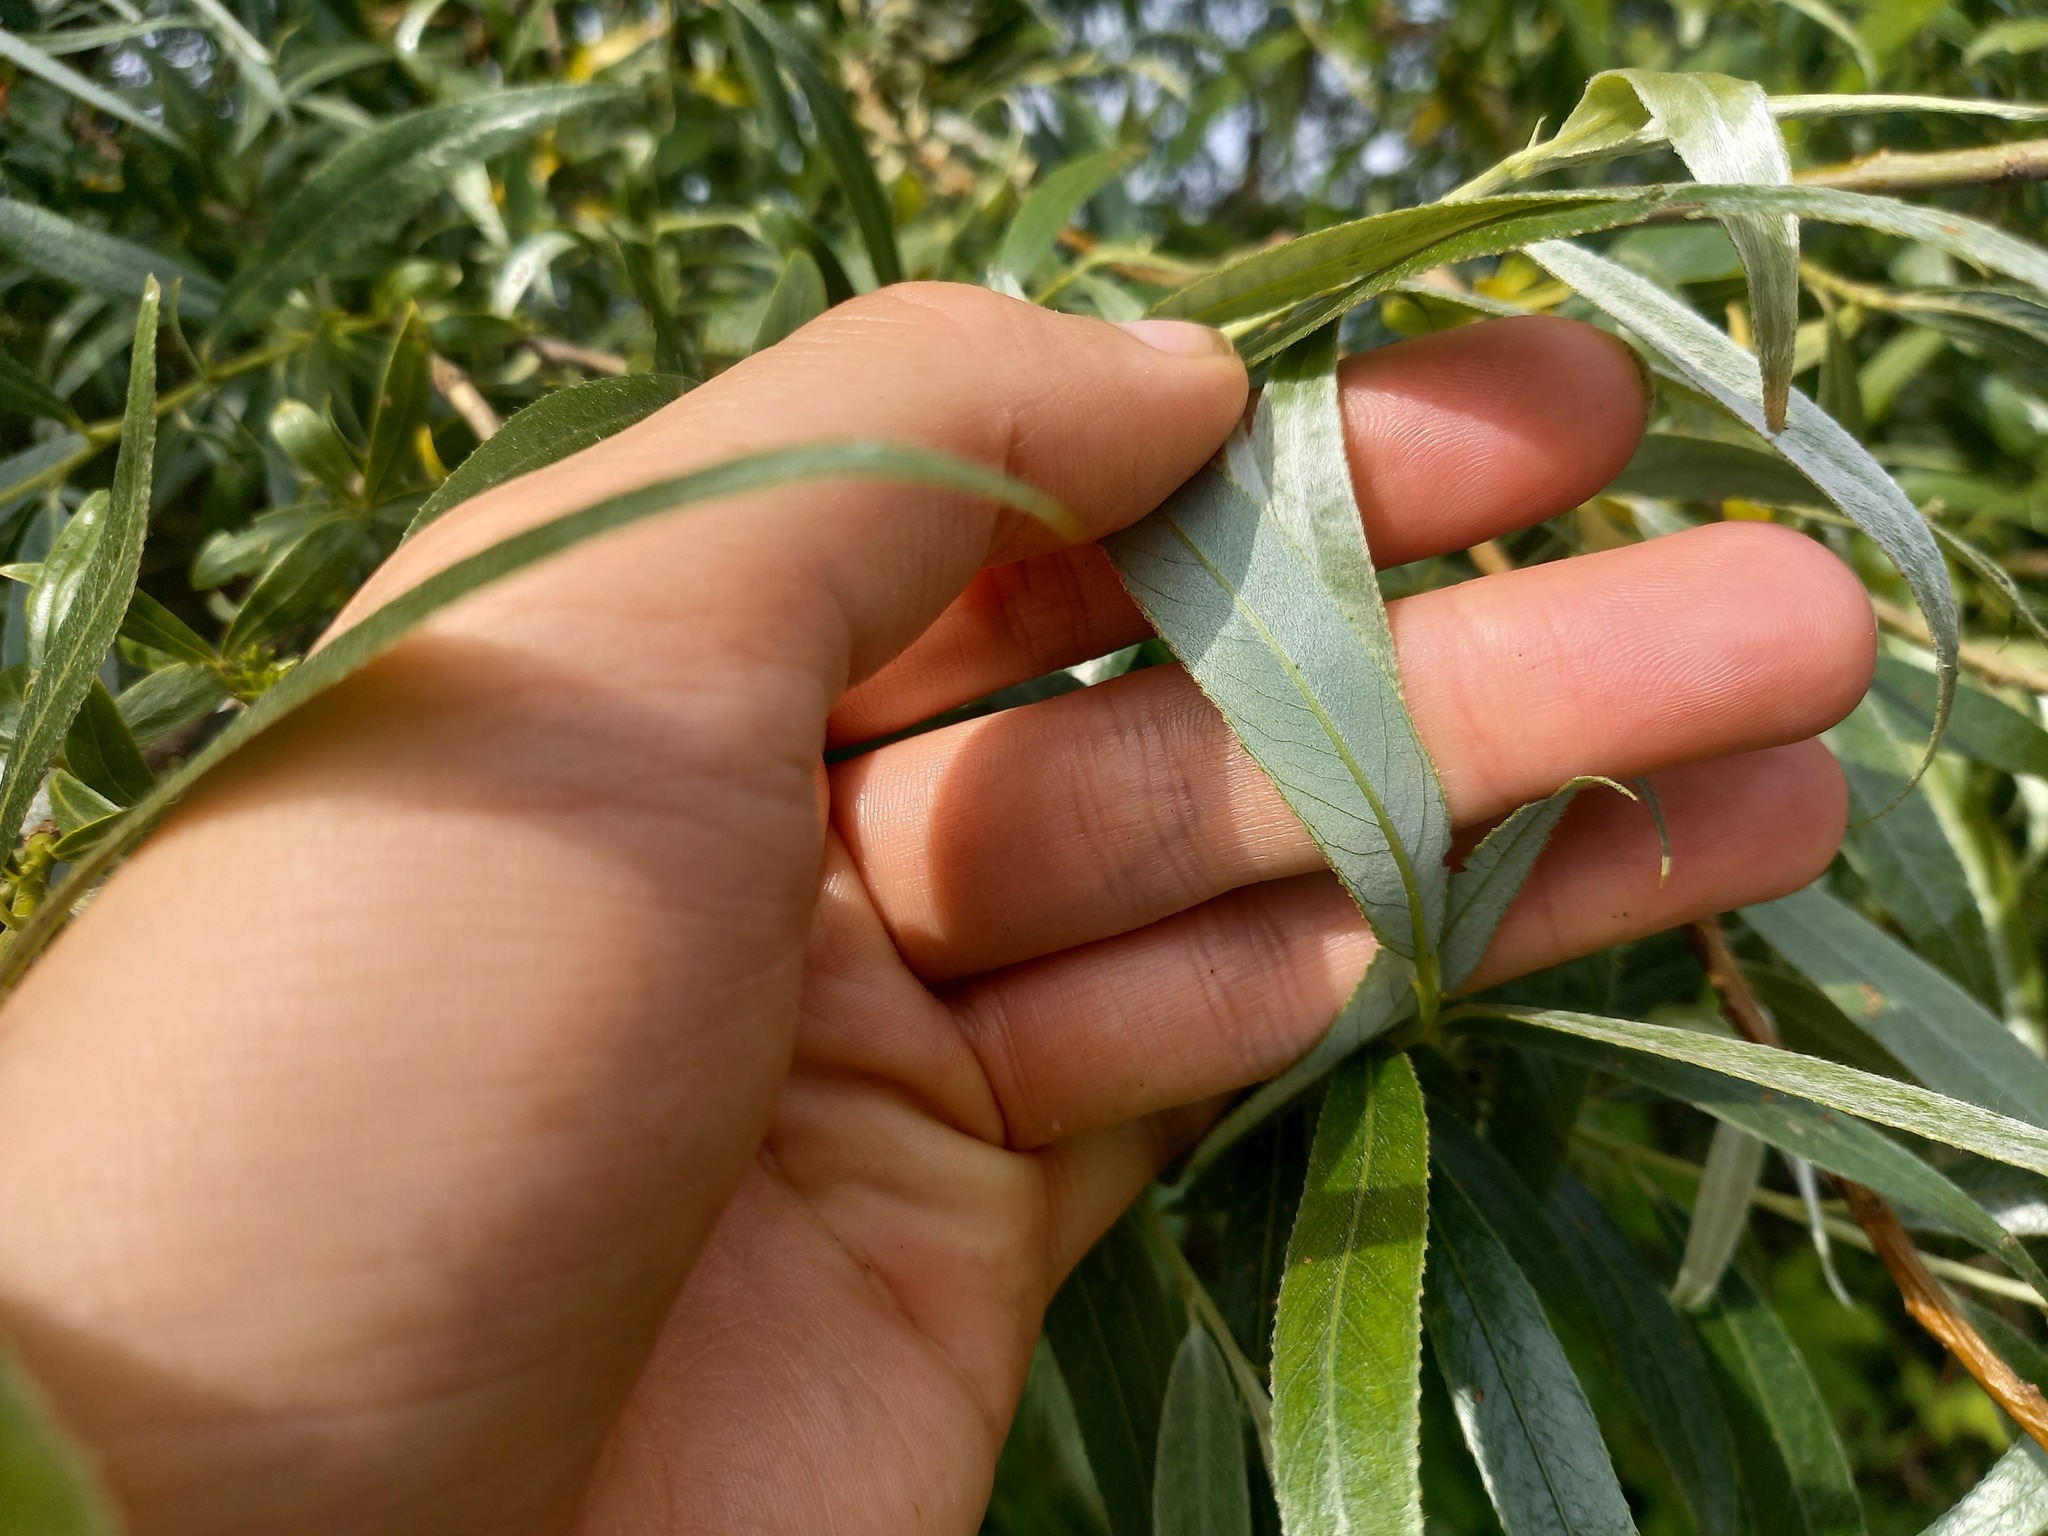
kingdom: Plantae
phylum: Tracheophyta
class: Magnoliopsida
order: Malpighiales
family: Salicaceae
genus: Salix
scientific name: Salix alba
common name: White willow
